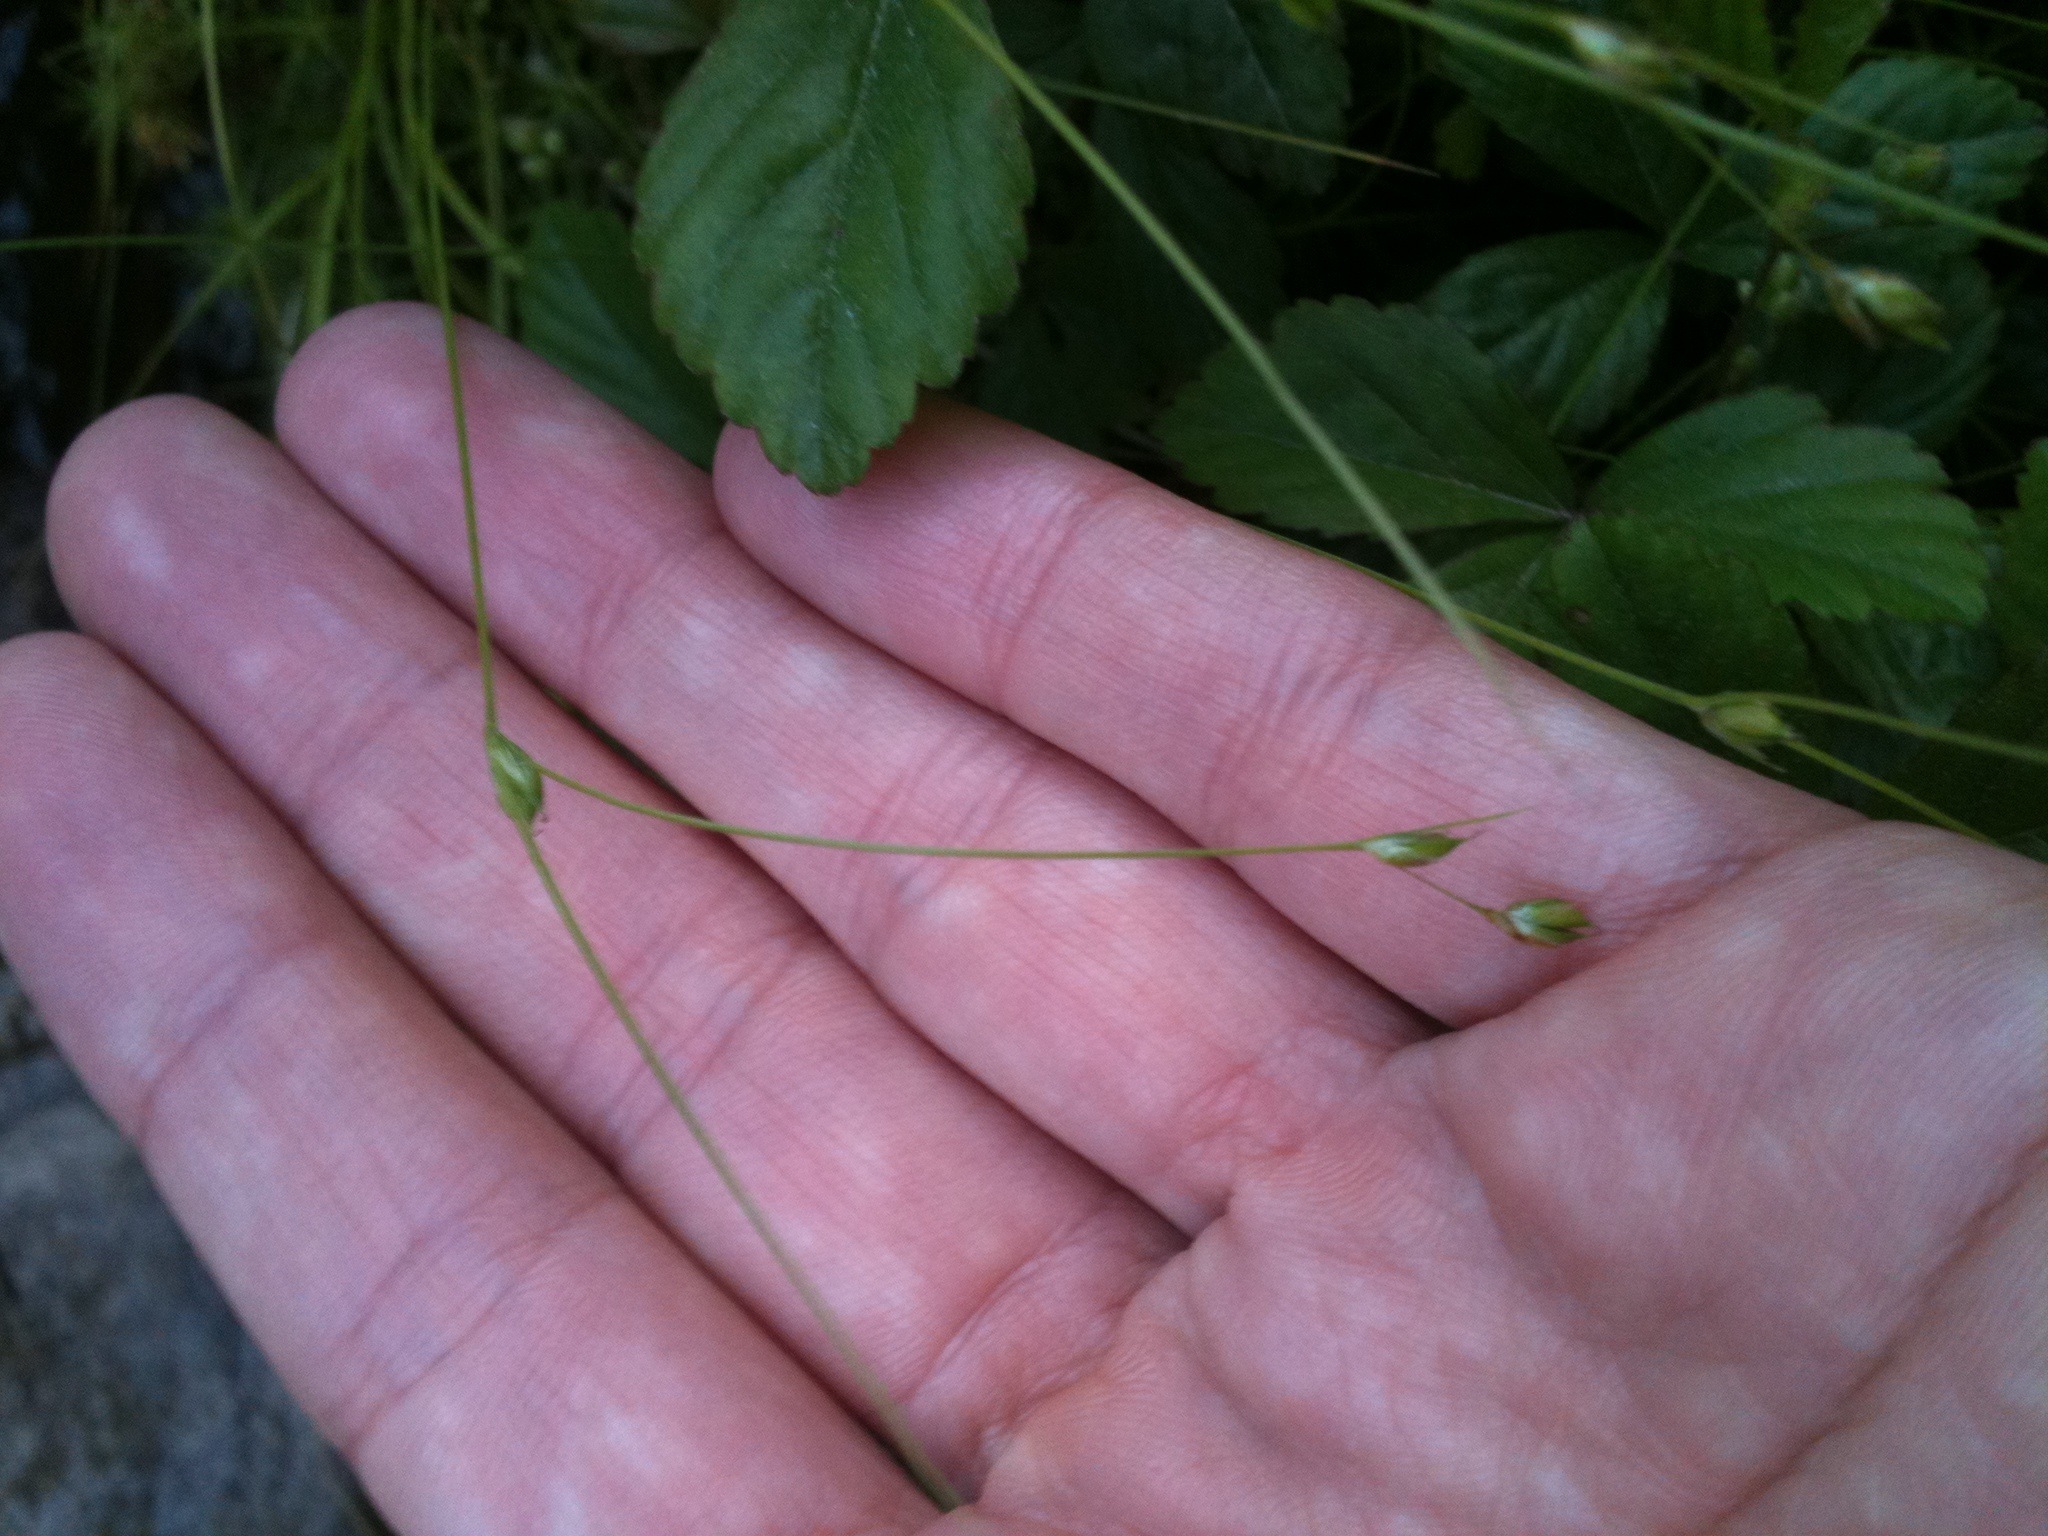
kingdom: Plantae
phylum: Tracheophyta
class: Liliopsida
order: Poales
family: Cyperaceae
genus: Carex
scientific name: Carex trisperma
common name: Three-seeded sedge
